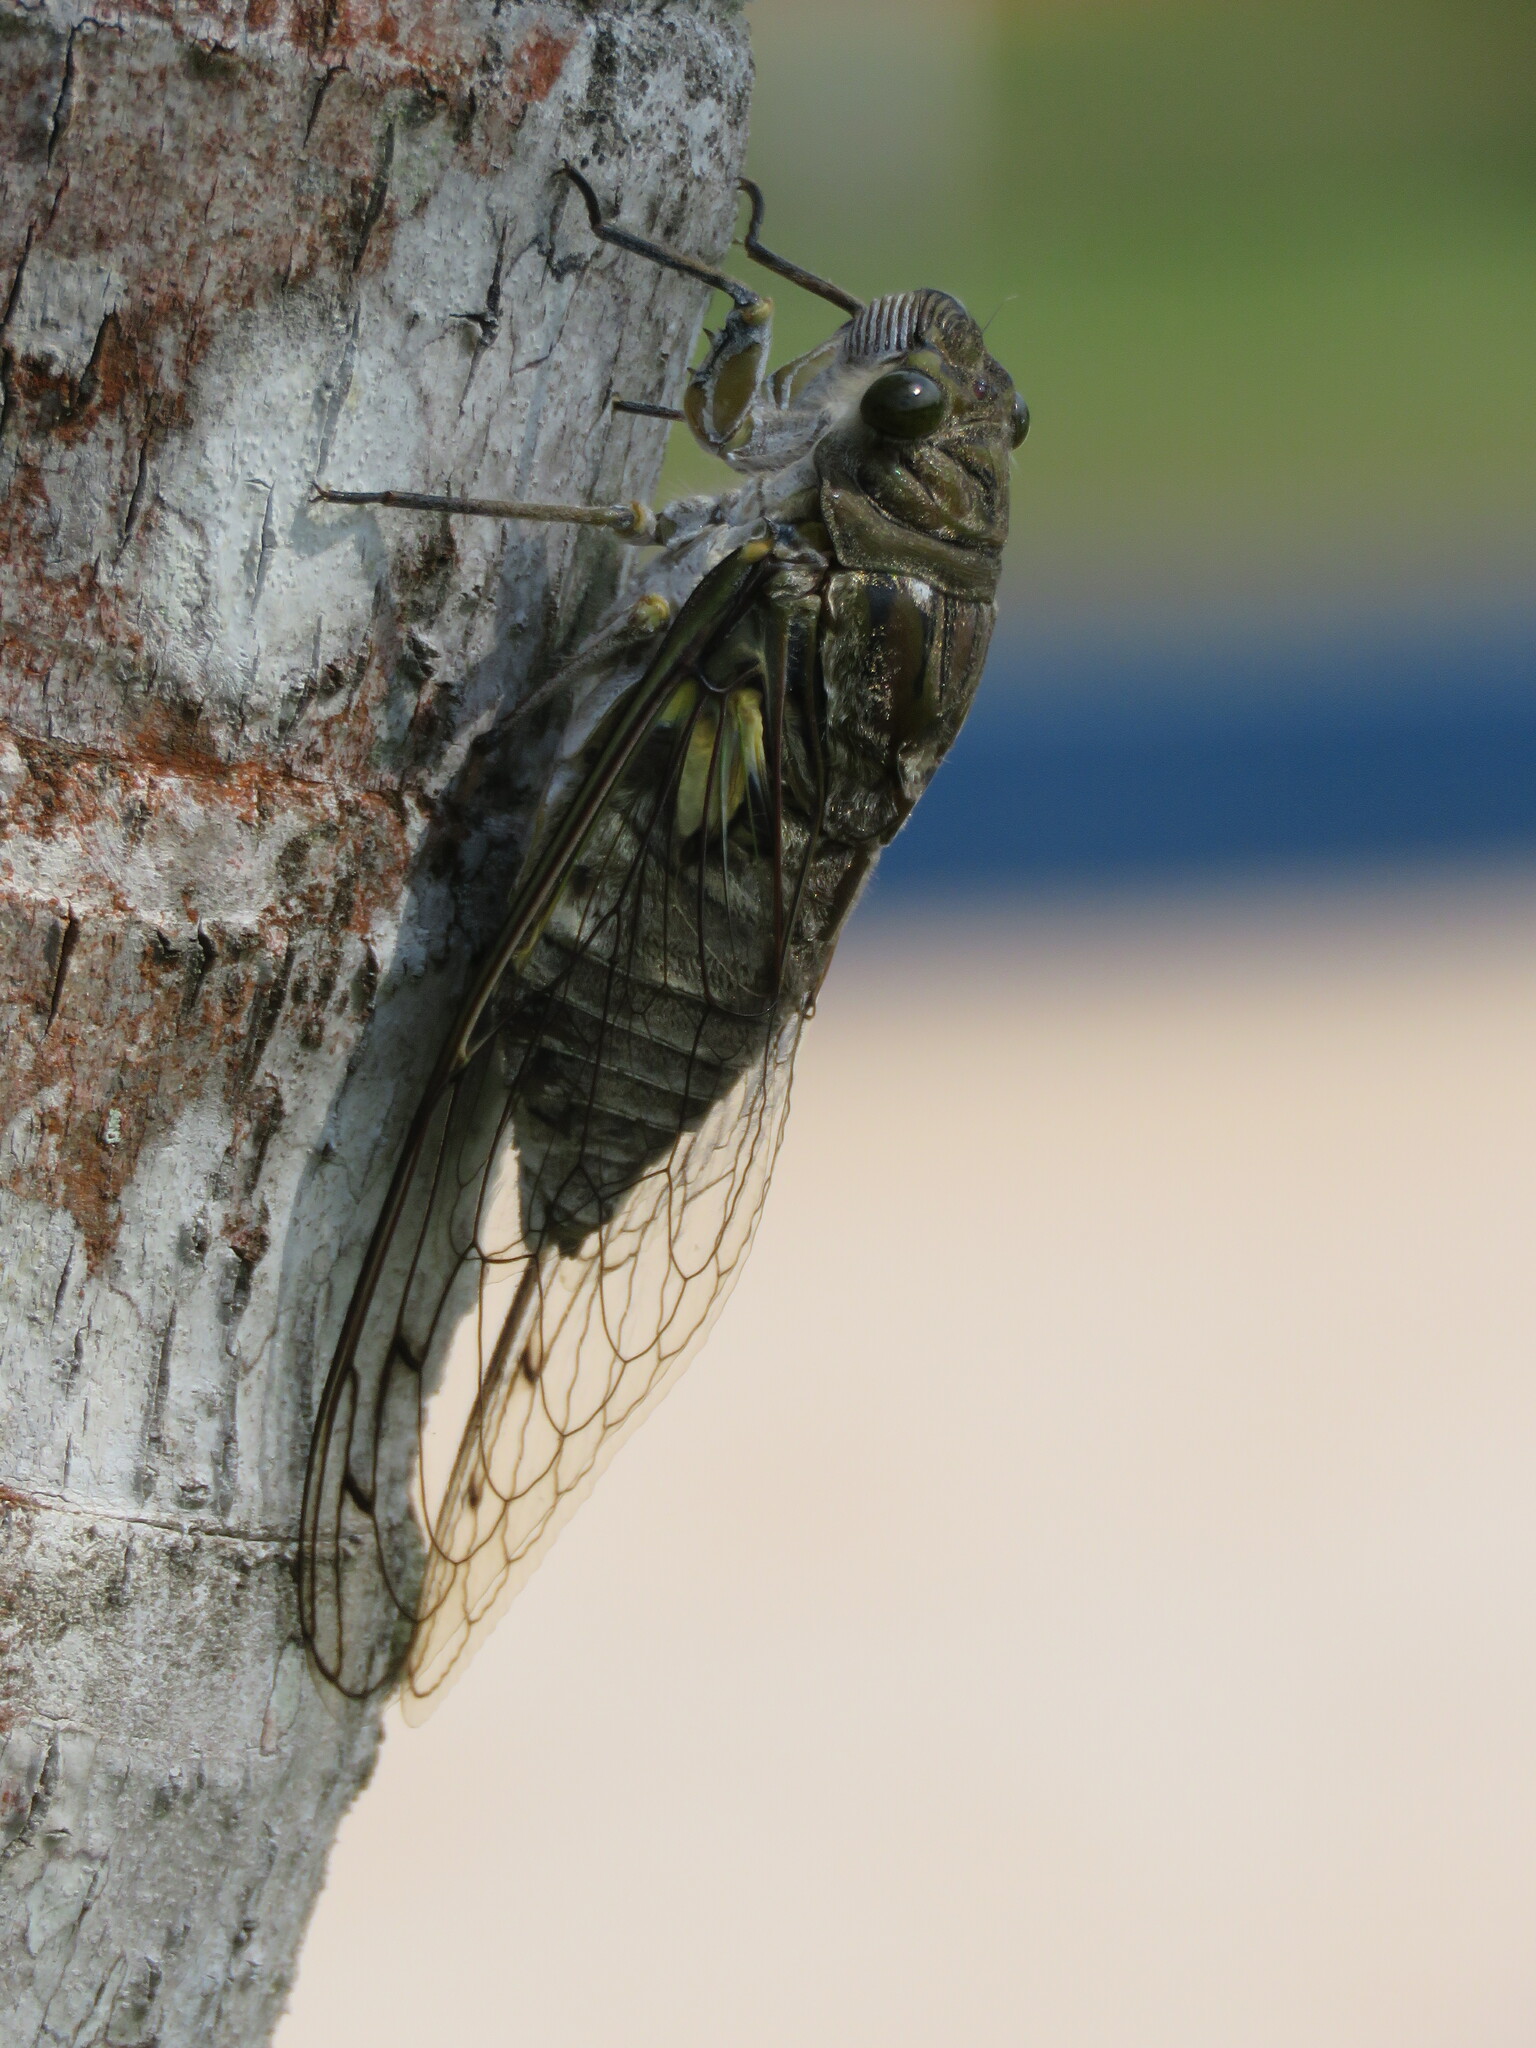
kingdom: Animalia
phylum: Arthropoda
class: Insecta
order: Hemiptera
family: Cicadidae
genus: Quesada
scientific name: Quesada gigas
